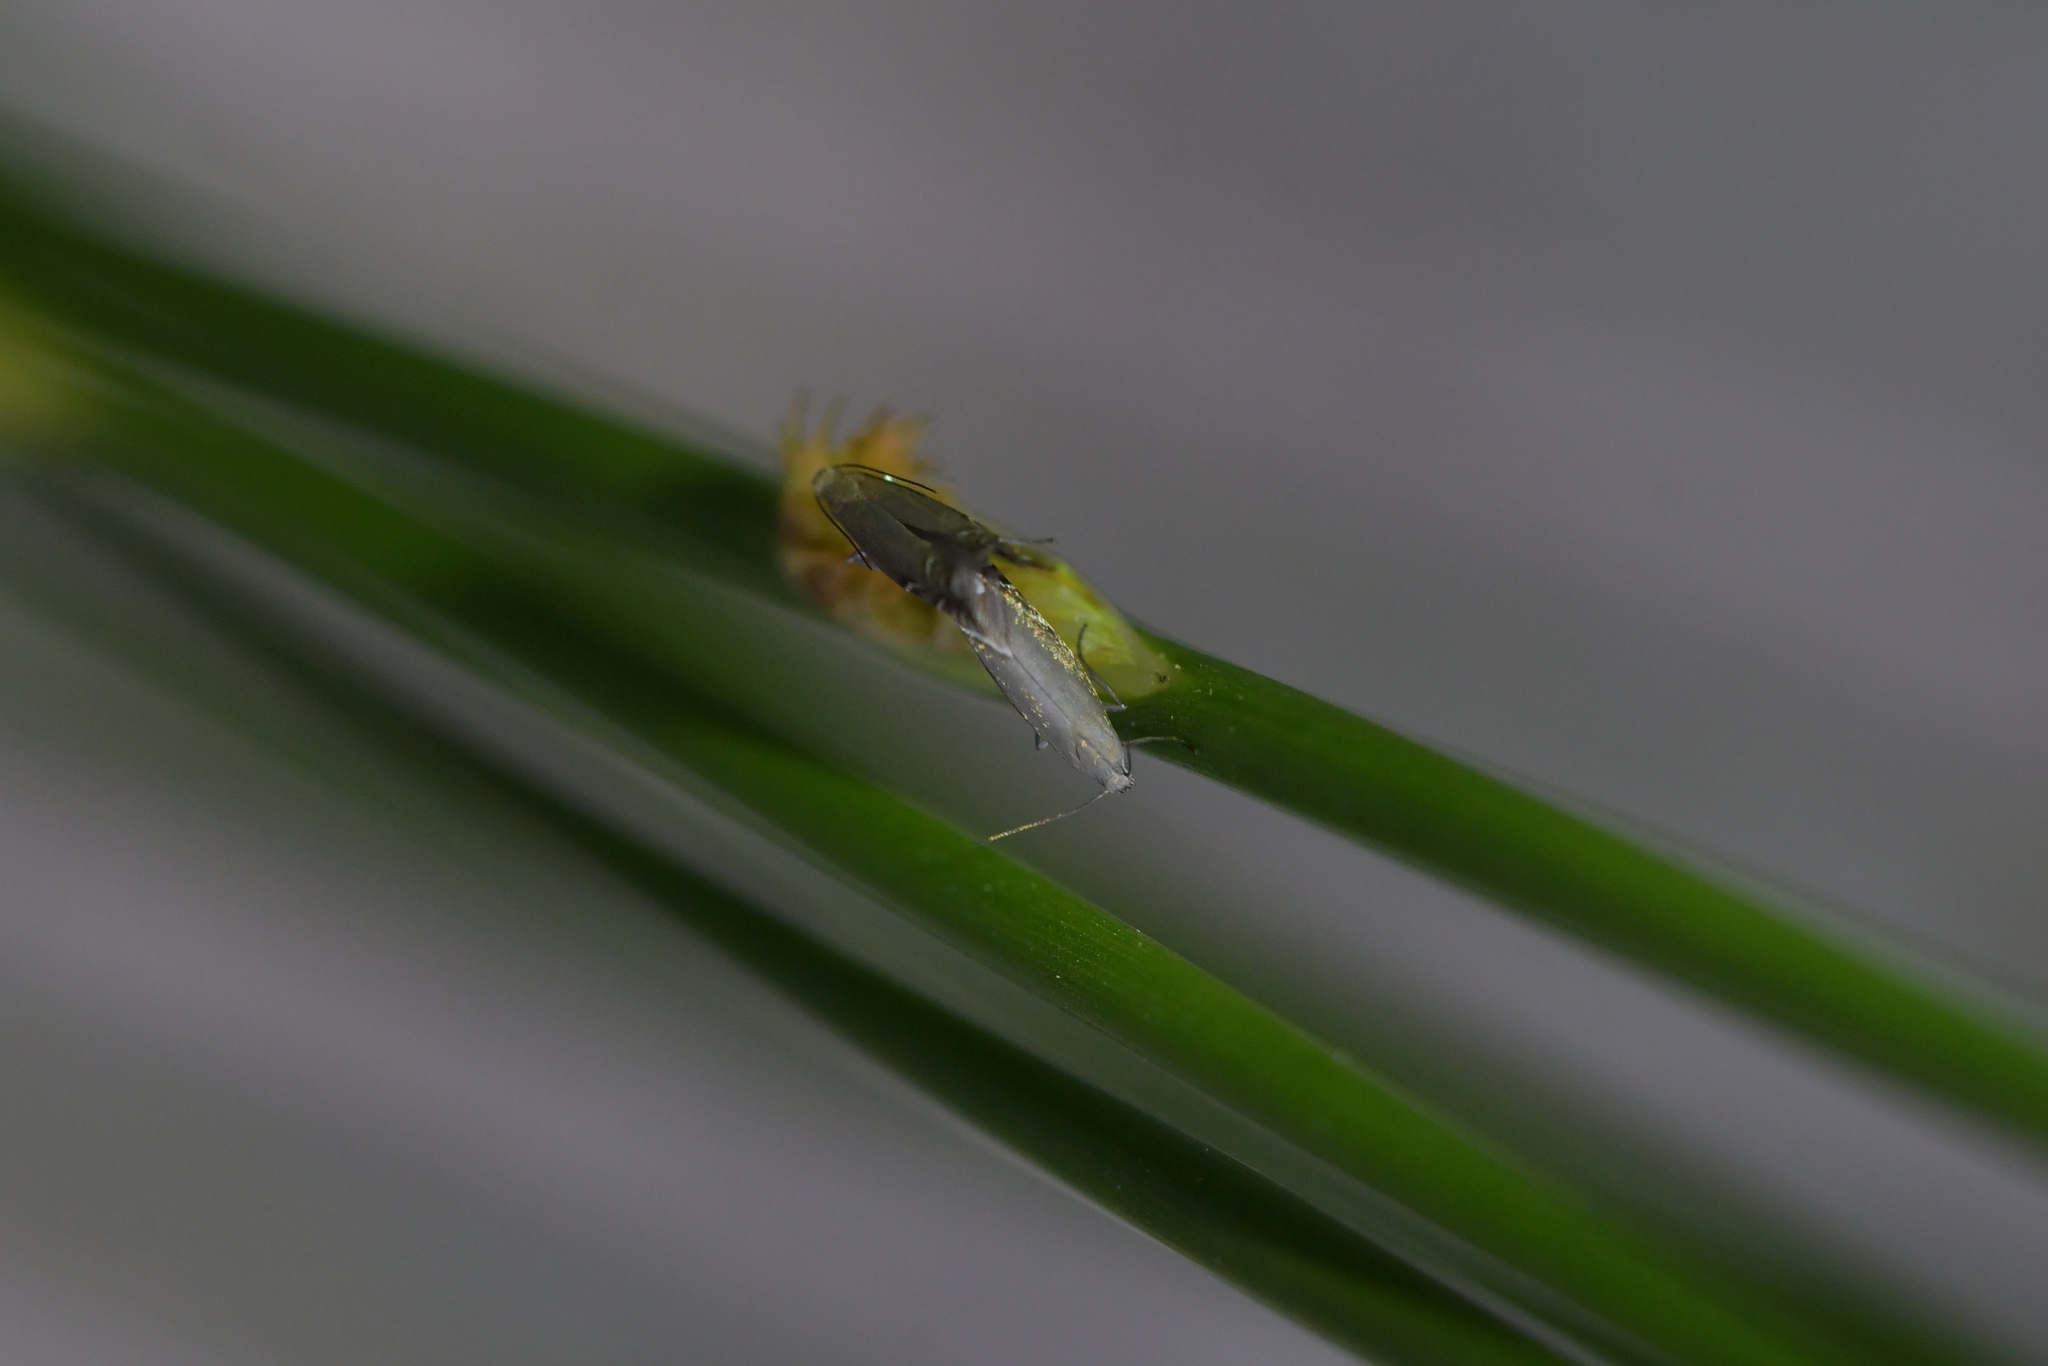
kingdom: Animalia
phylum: Arthropoda
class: Insecta
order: Lepidoptera
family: Glyphipterigidae
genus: Glyphipterix
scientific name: Glyphipterix iocheaera
